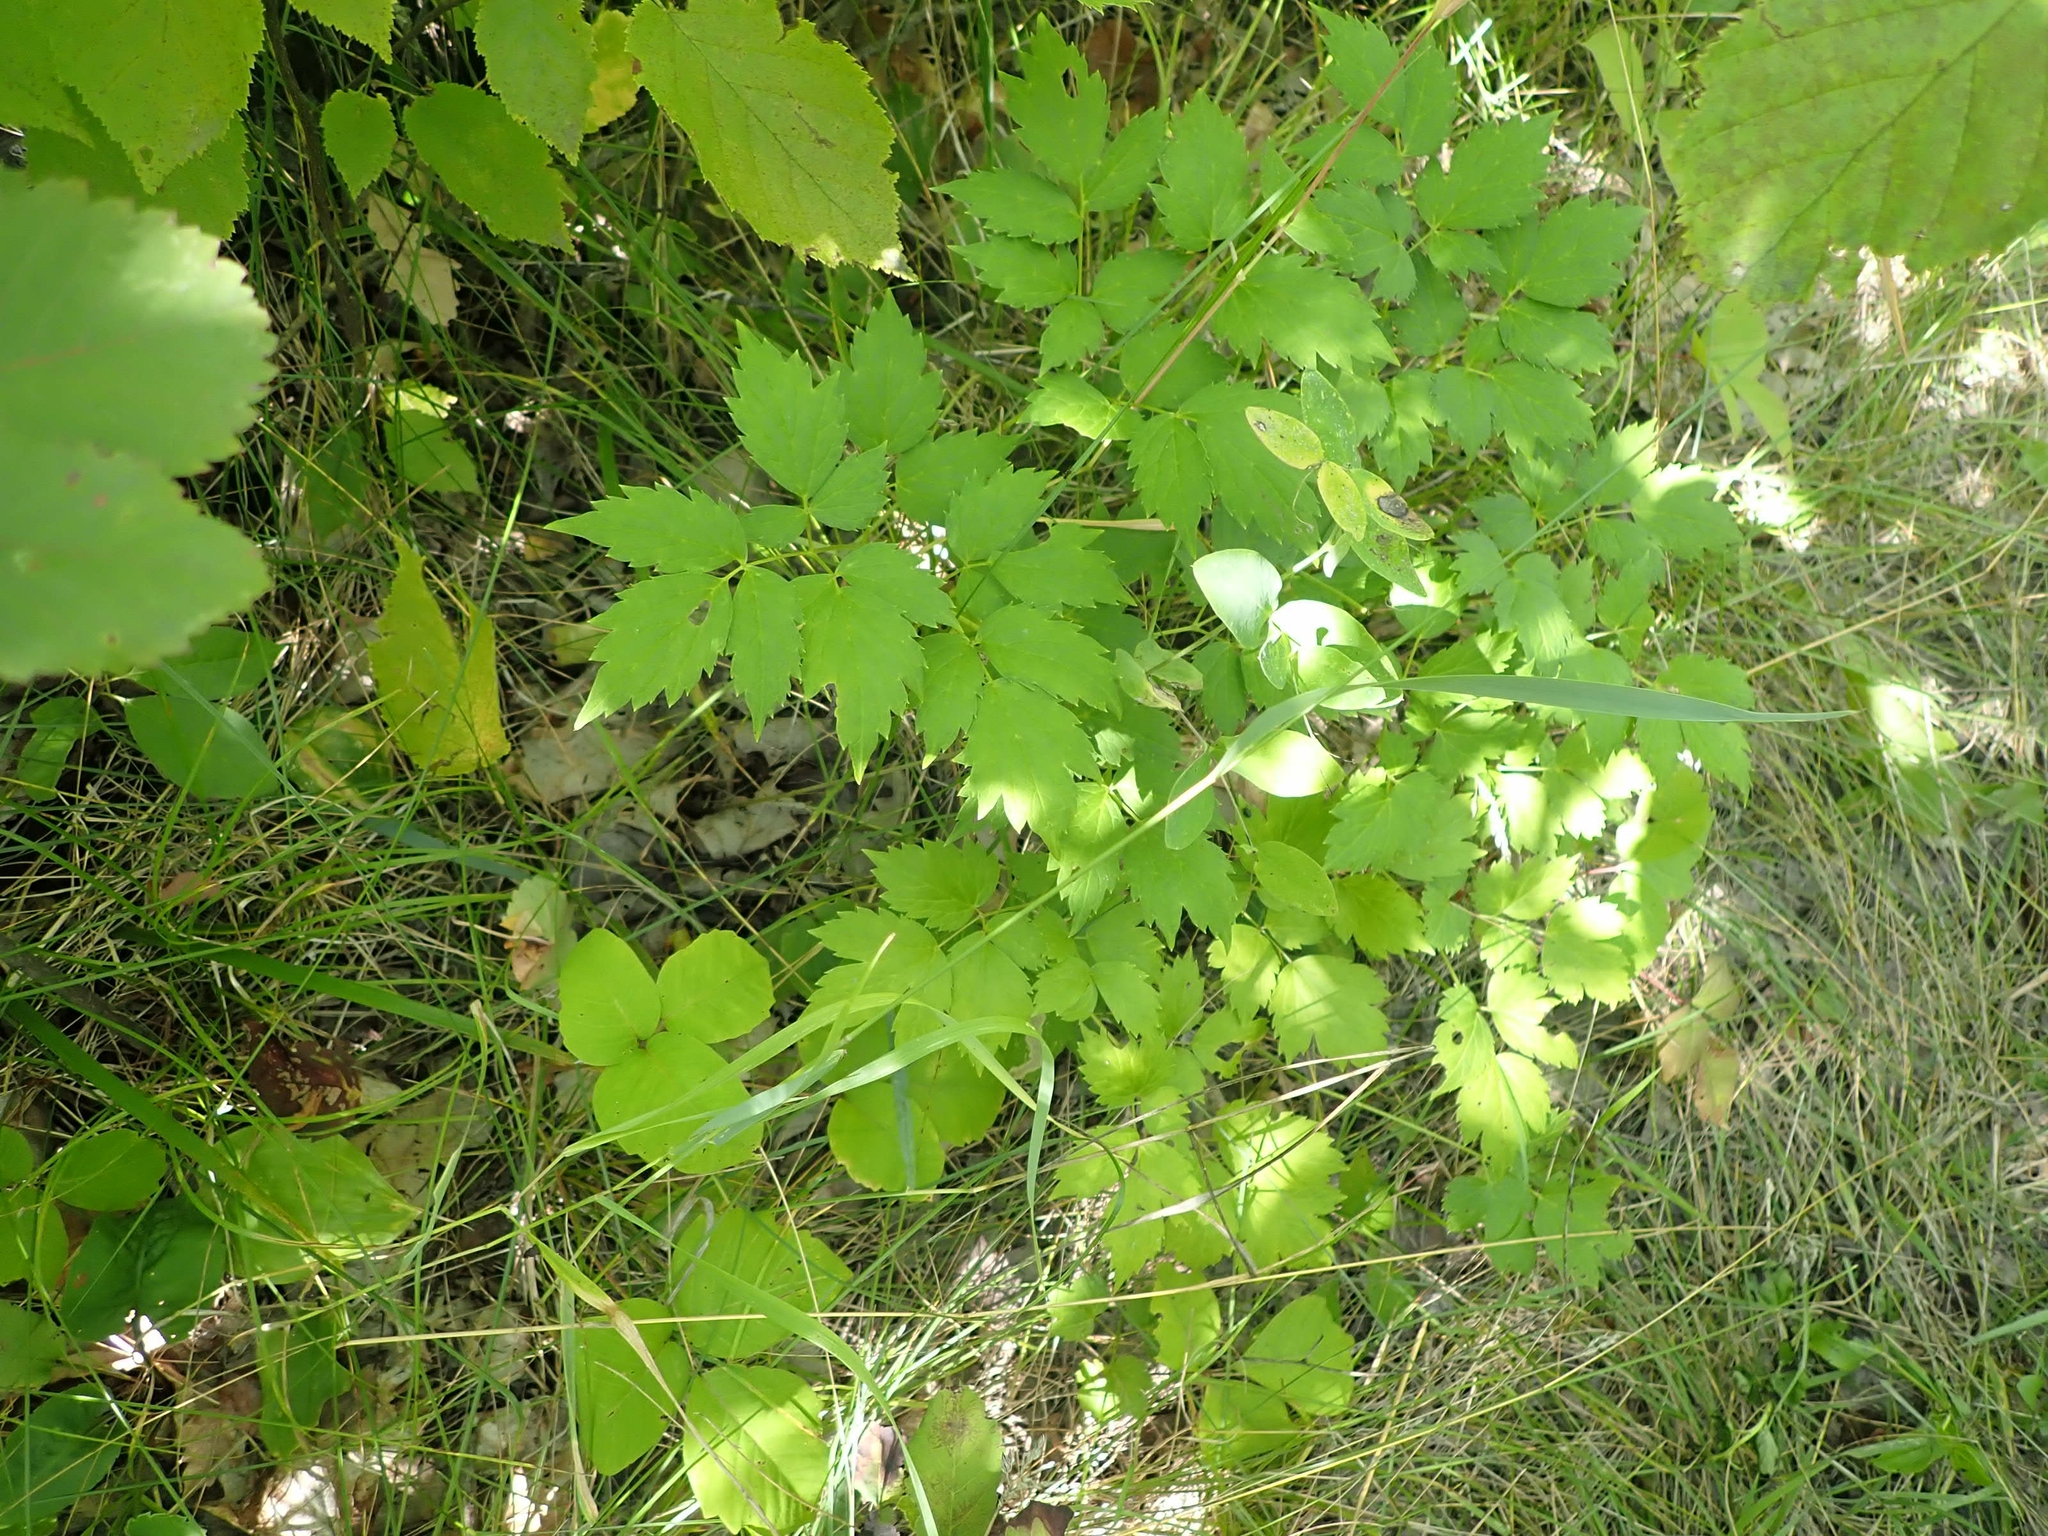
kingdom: Plantae
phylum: Tracheophyta
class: Magnoliopsida
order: Ranunculales
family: Ranunculaceae
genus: Actaea
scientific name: Actaea rubra
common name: Red baneberry
